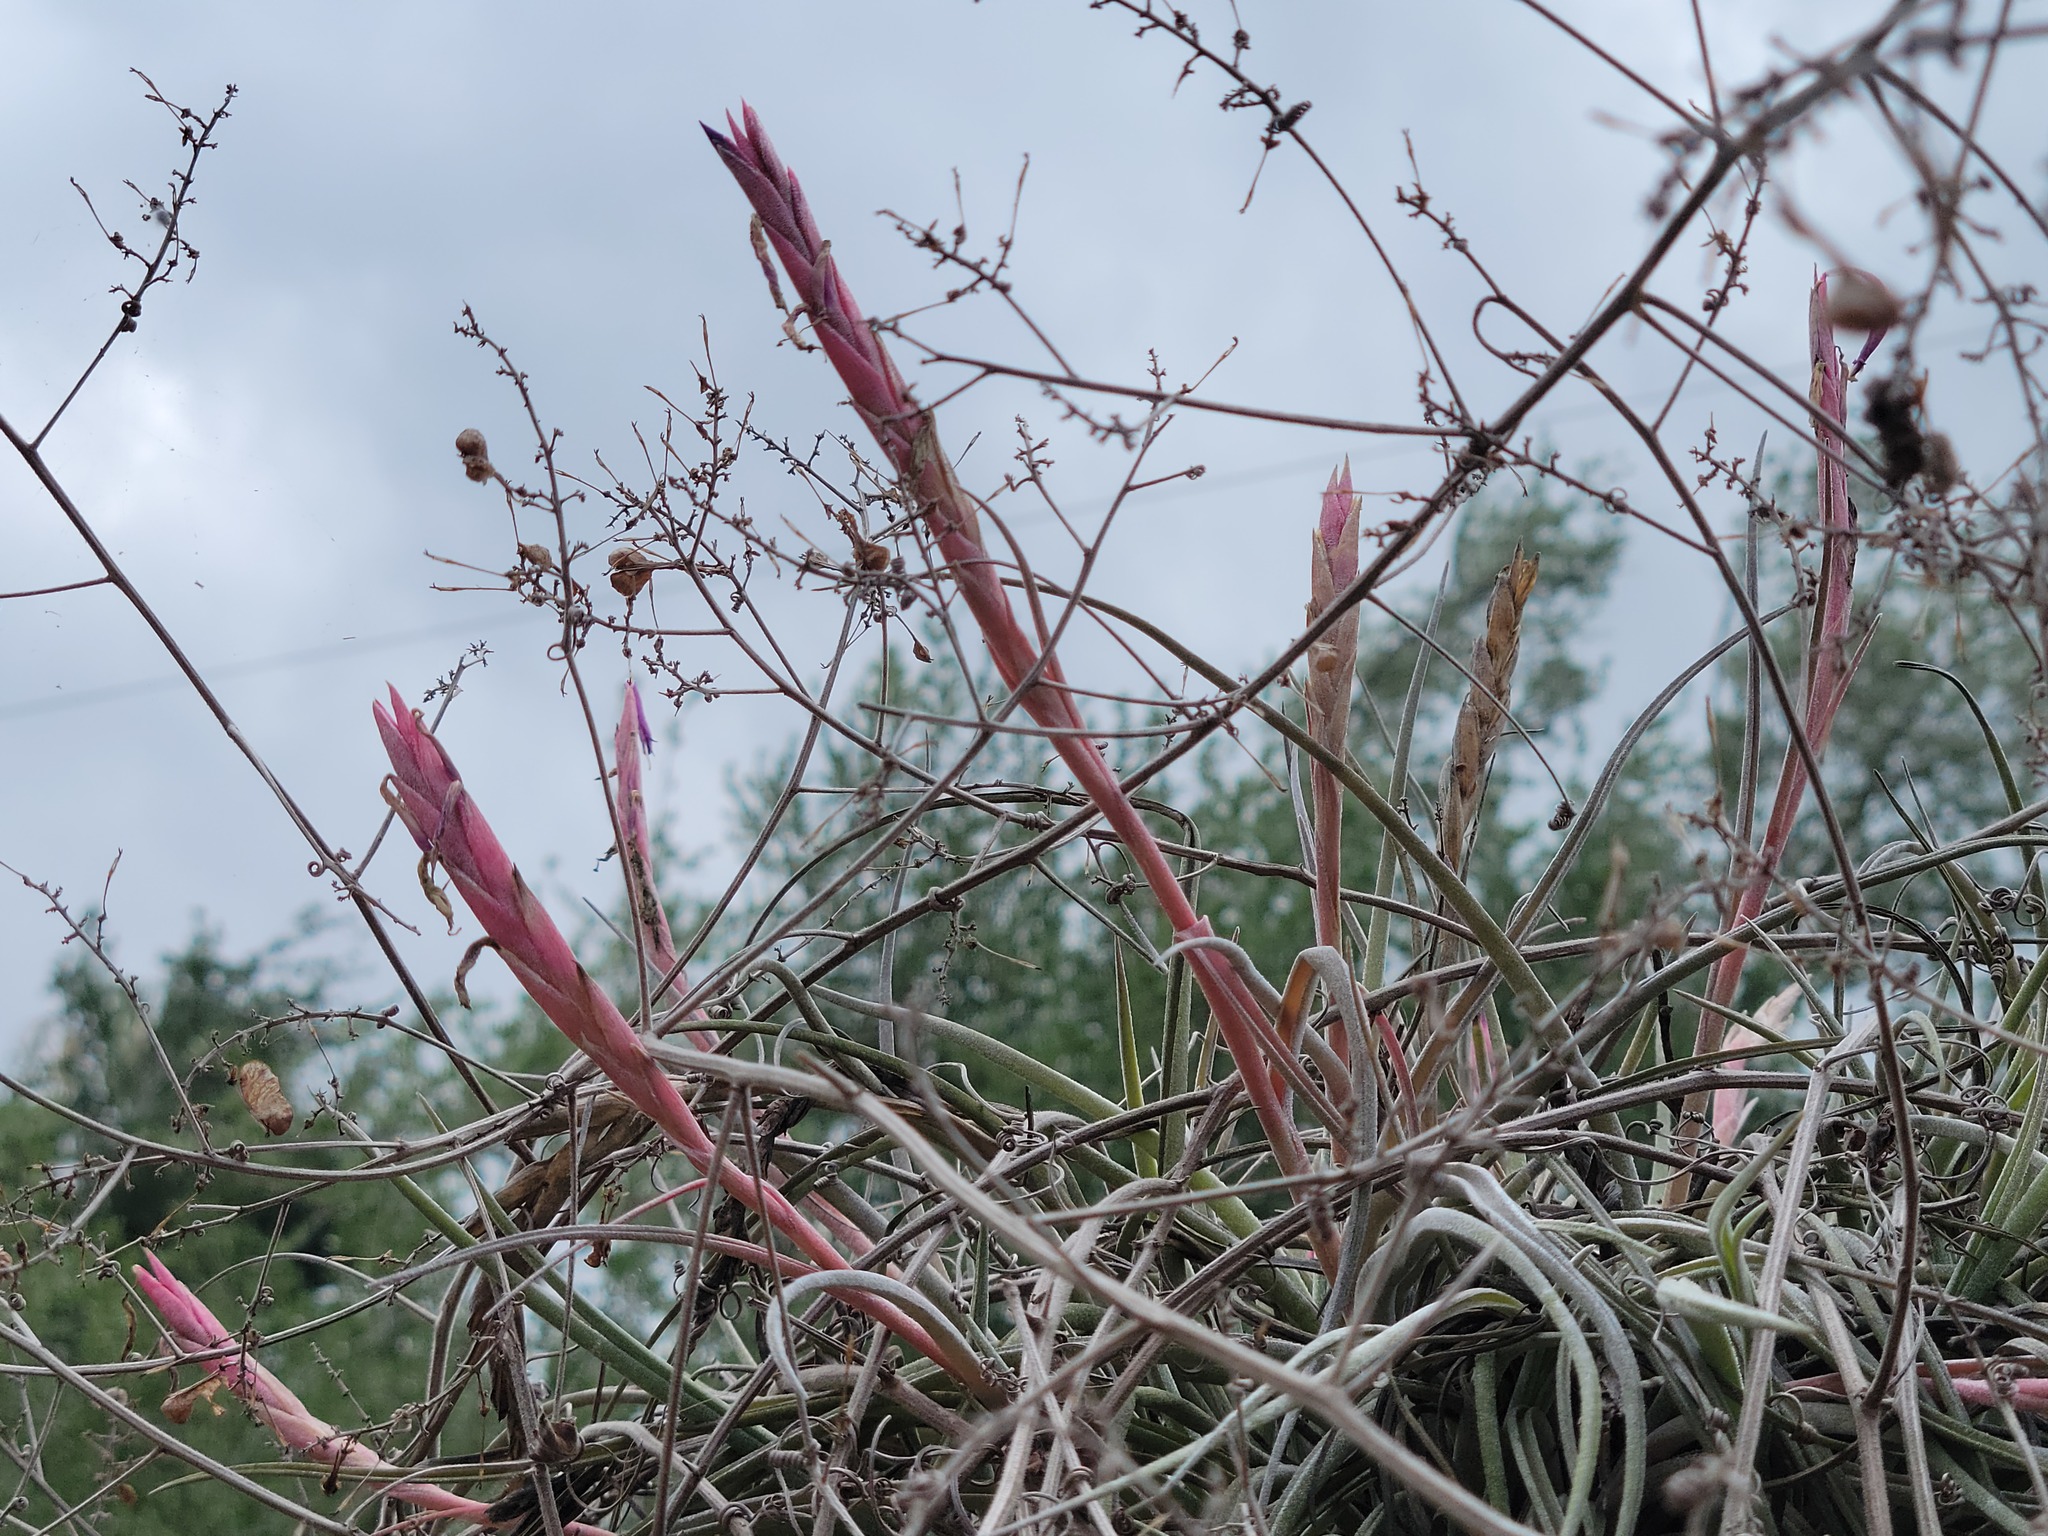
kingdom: Plantae
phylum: Tracheophyta
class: Liliopsida
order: Poales
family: Bromeliaceae
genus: Tillandsia
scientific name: Tillandsia baileyi
